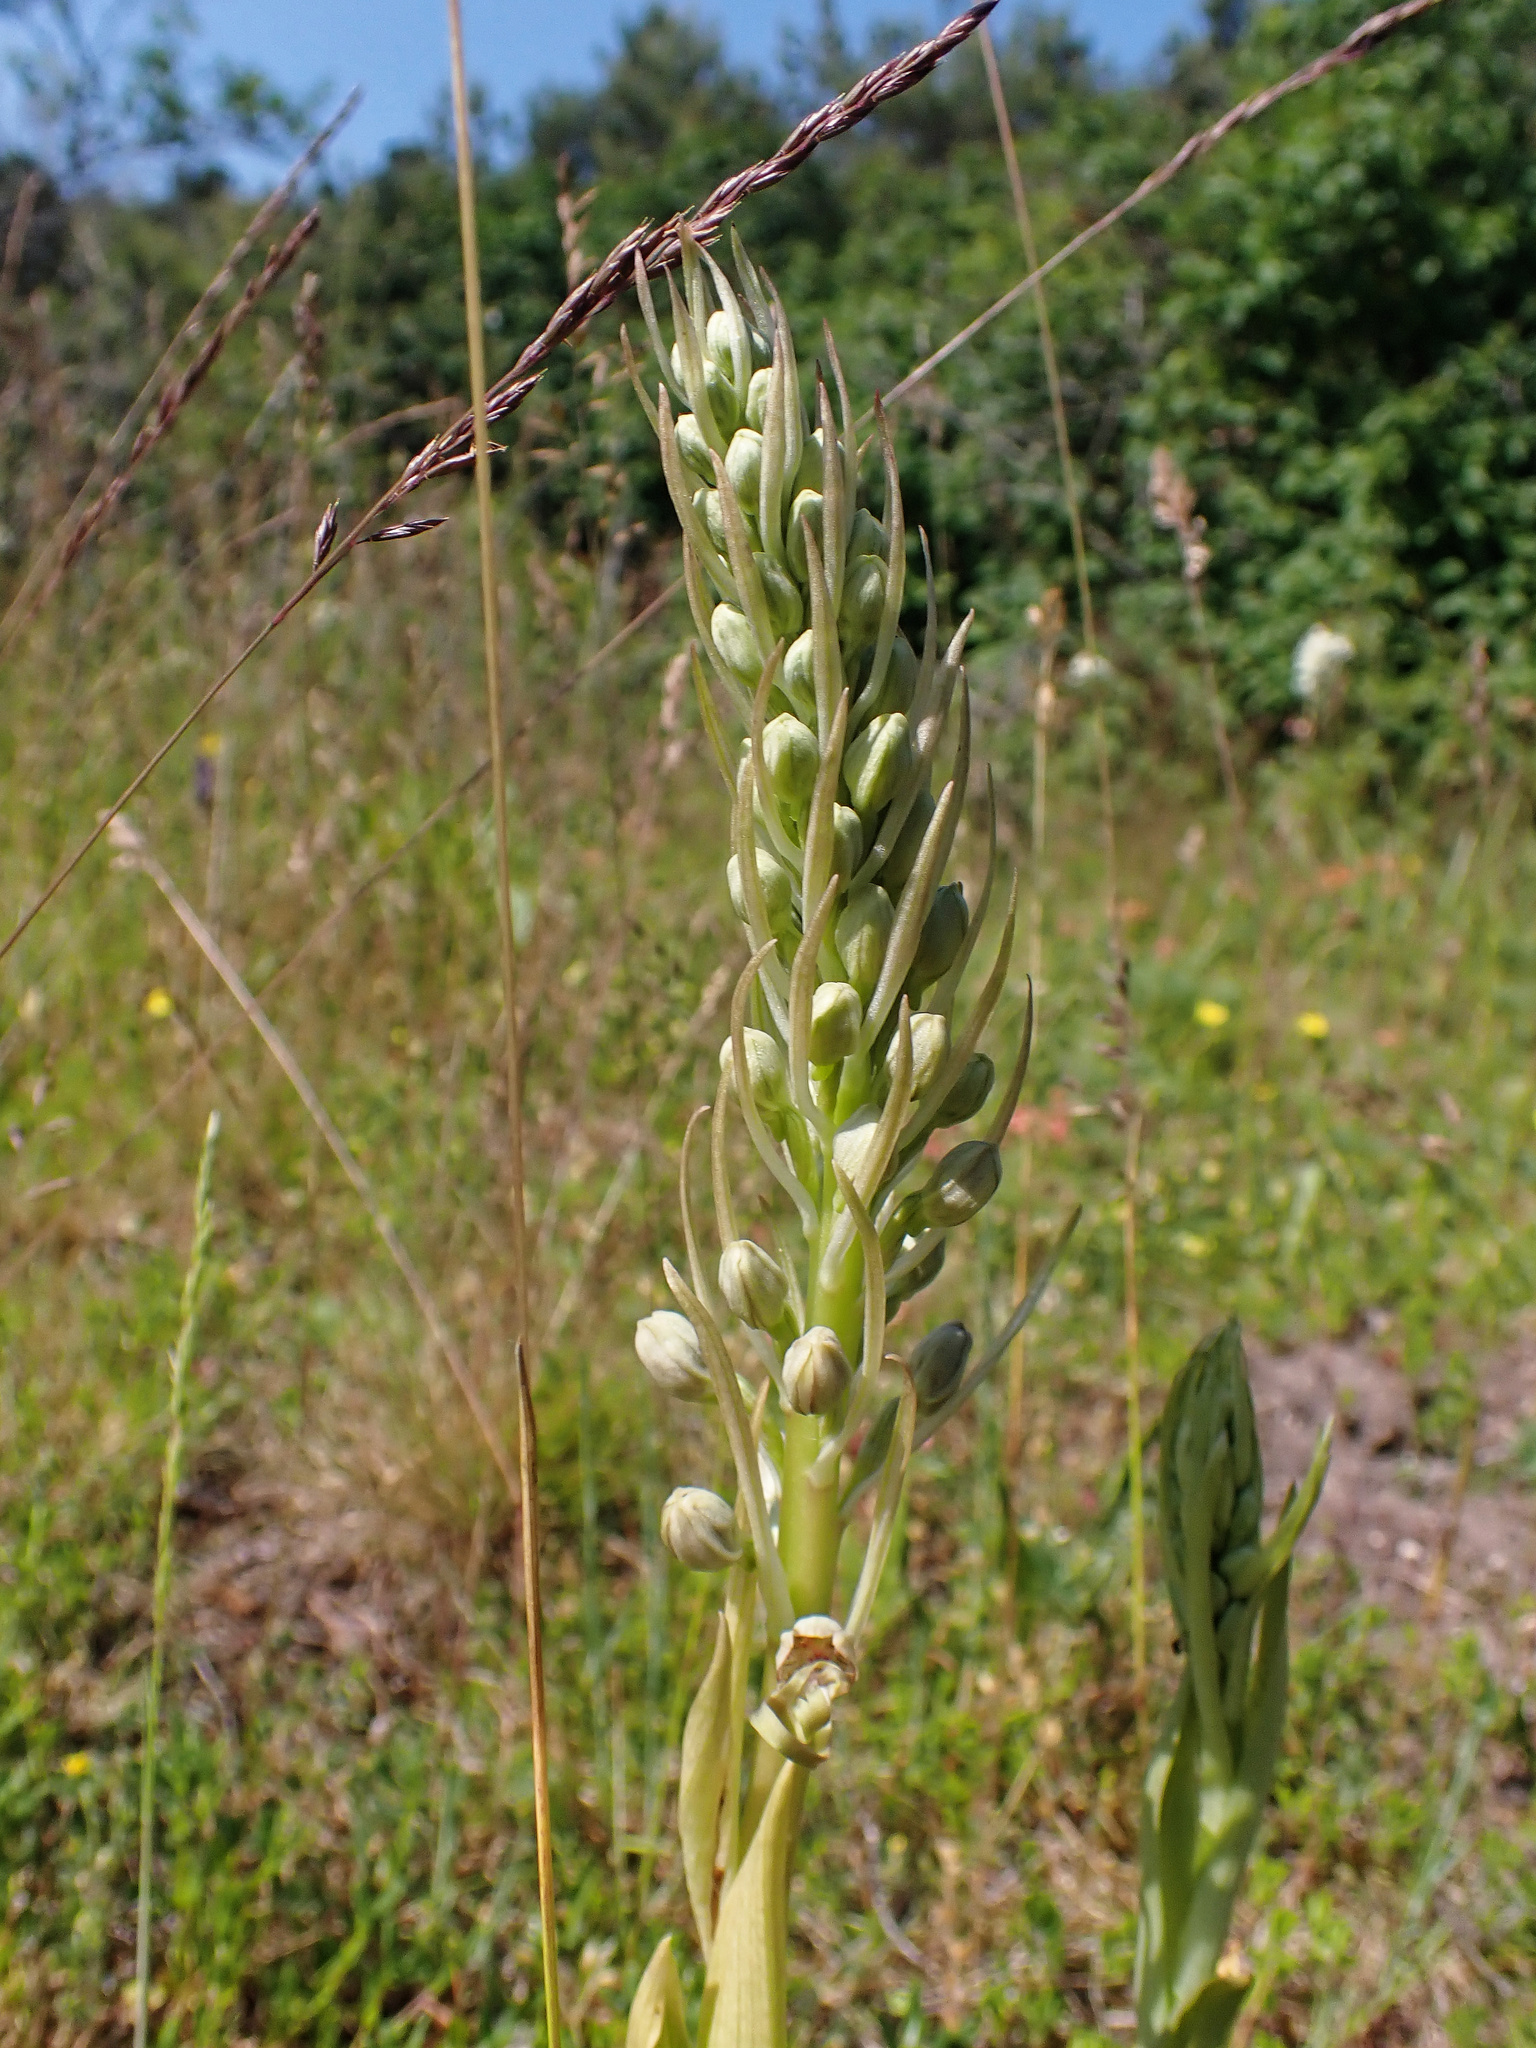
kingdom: Plantae
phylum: Tracheophyta
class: Liliopsida
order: Asparagales
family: Orchidaceae
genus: Himantoglossum
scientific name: Himantoglossum hircinum
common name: Lizard orchid
